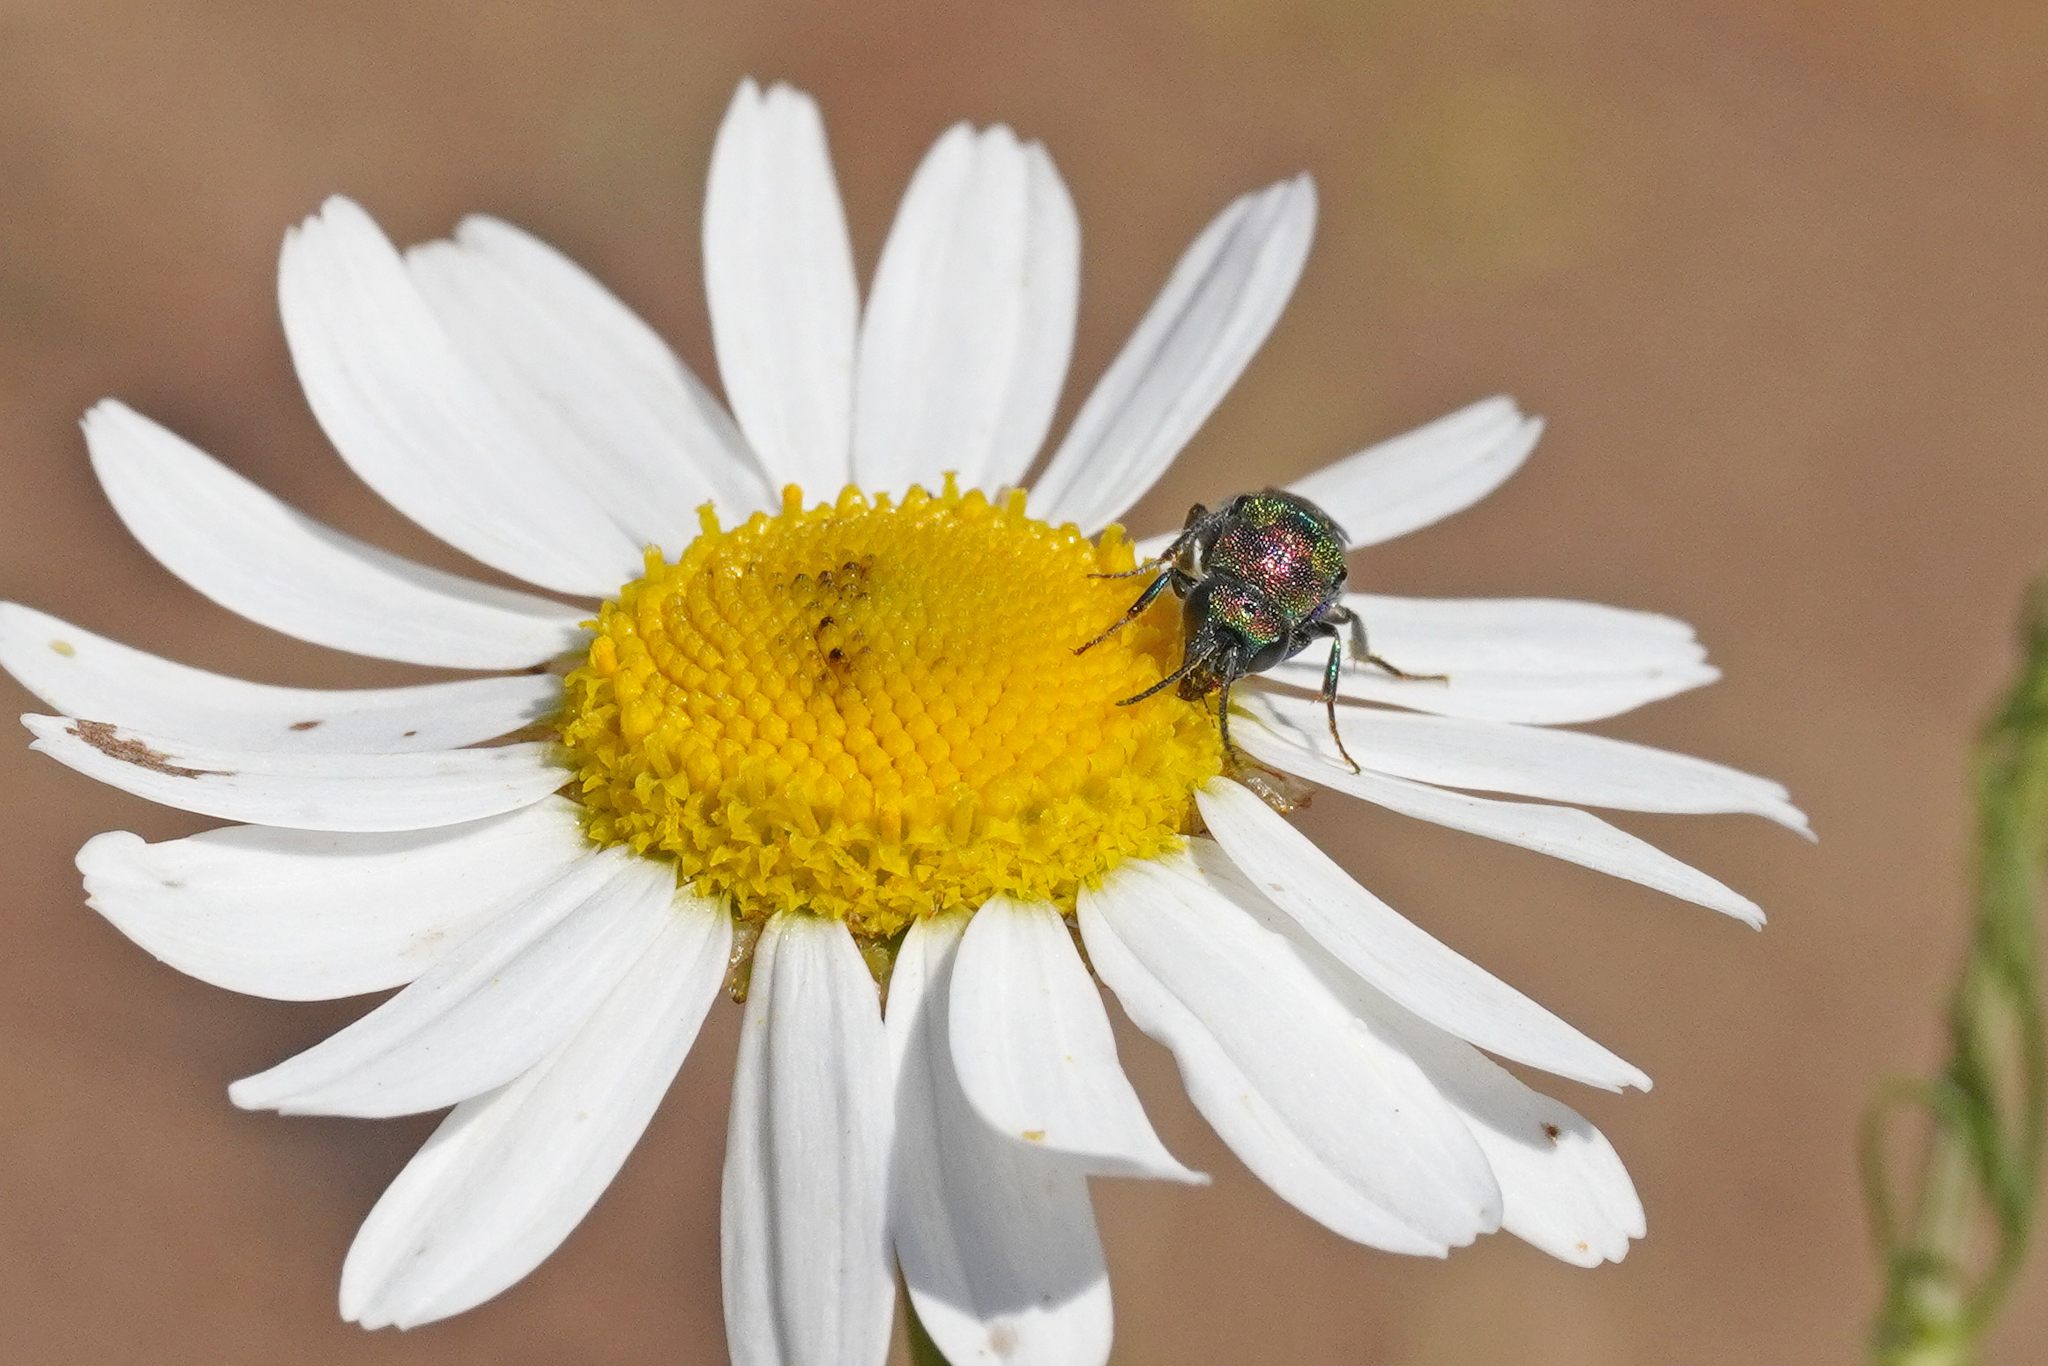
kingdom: Animalia
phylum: Arthropoda
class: Insecta
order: Hymenoptera
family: Chrysididae
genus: Hedychrum
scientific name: Hedychrum rutilans
